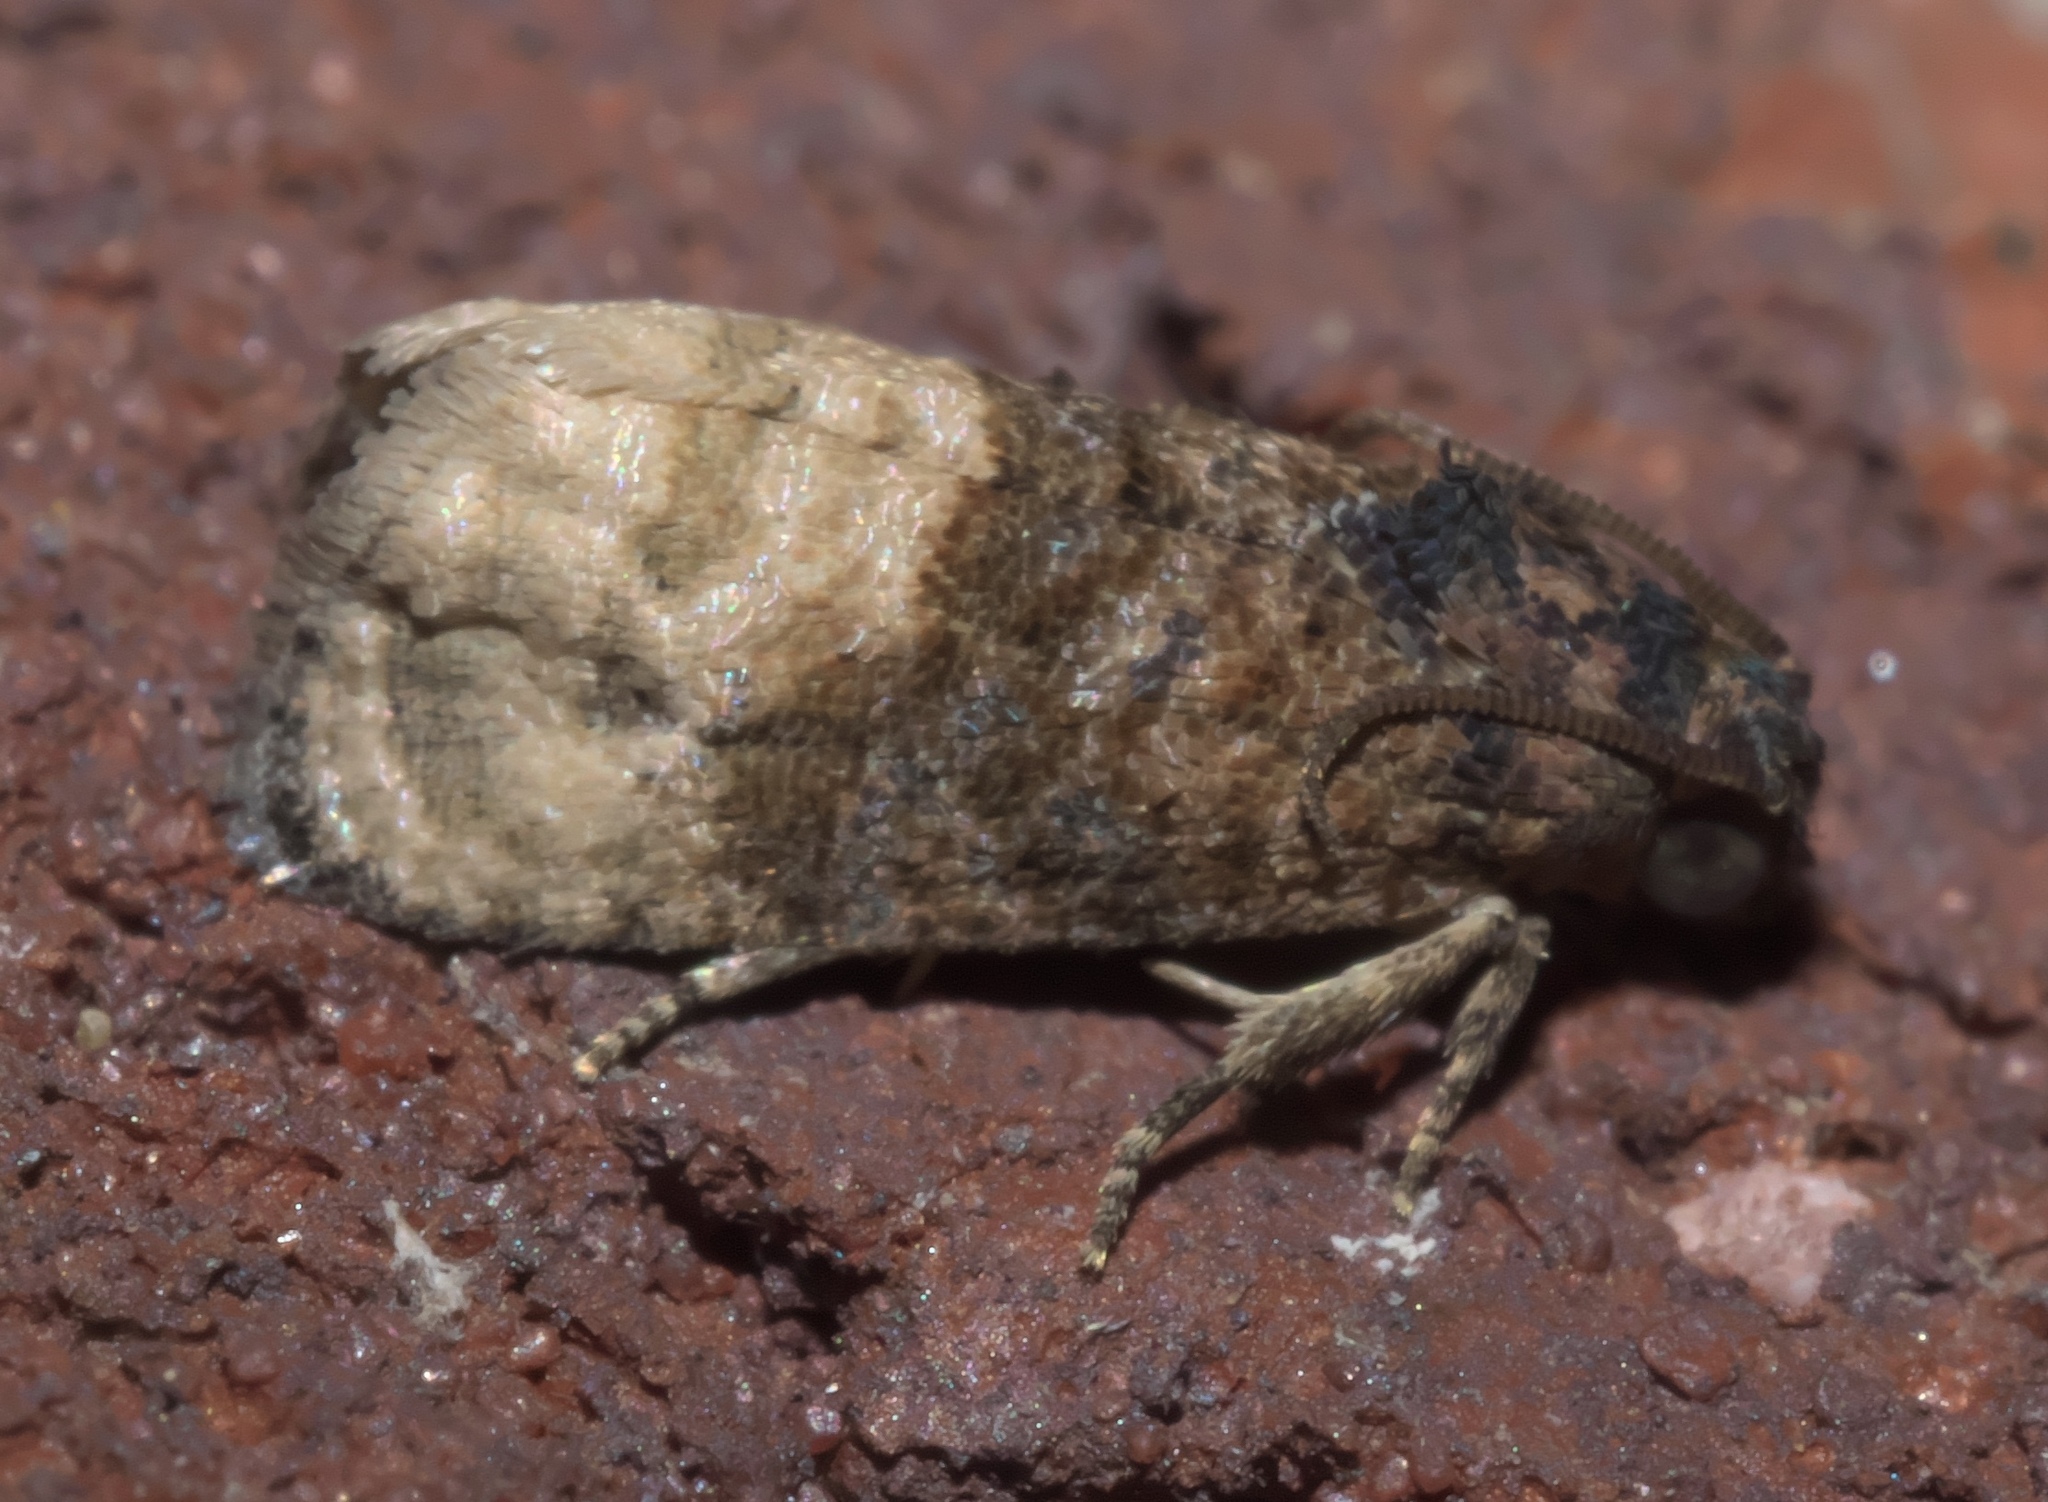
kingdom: Animalia
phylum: Arthropoda
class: Insecta
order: Lepidoptera
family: Tortricidae
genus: Ecdytolopha
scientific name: Ecdytolopha mana
